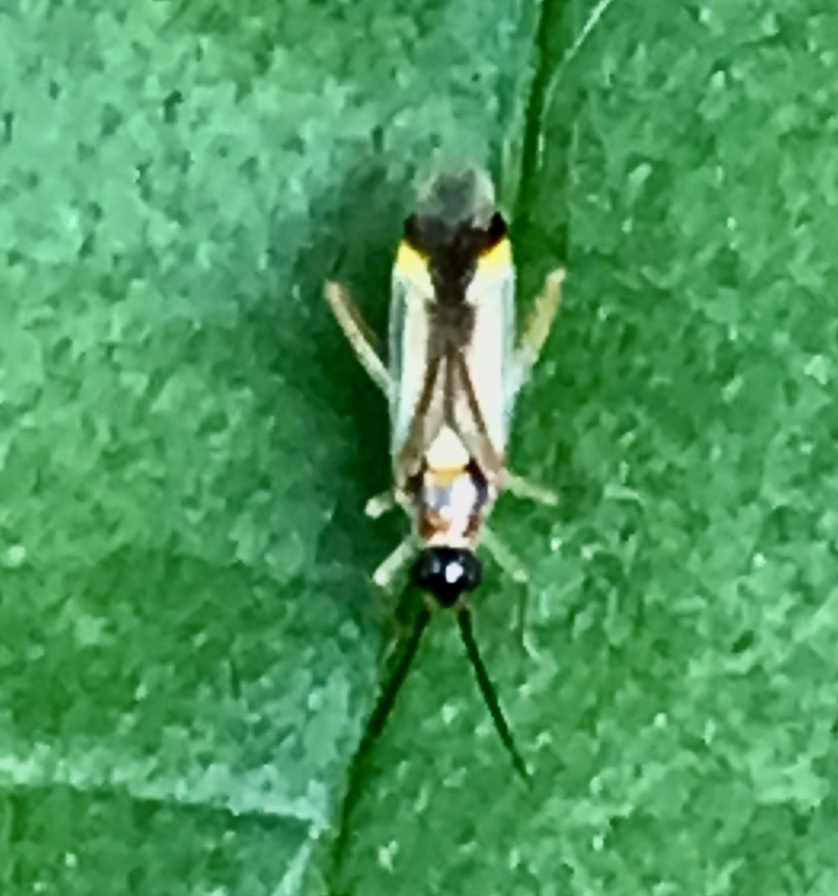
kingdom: Animalia
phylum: Arthropoda
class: Insecta
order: Hemiptera
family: Miridae
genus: Campyloneura
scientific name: Campyloneura virgula
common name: Predatory bug
